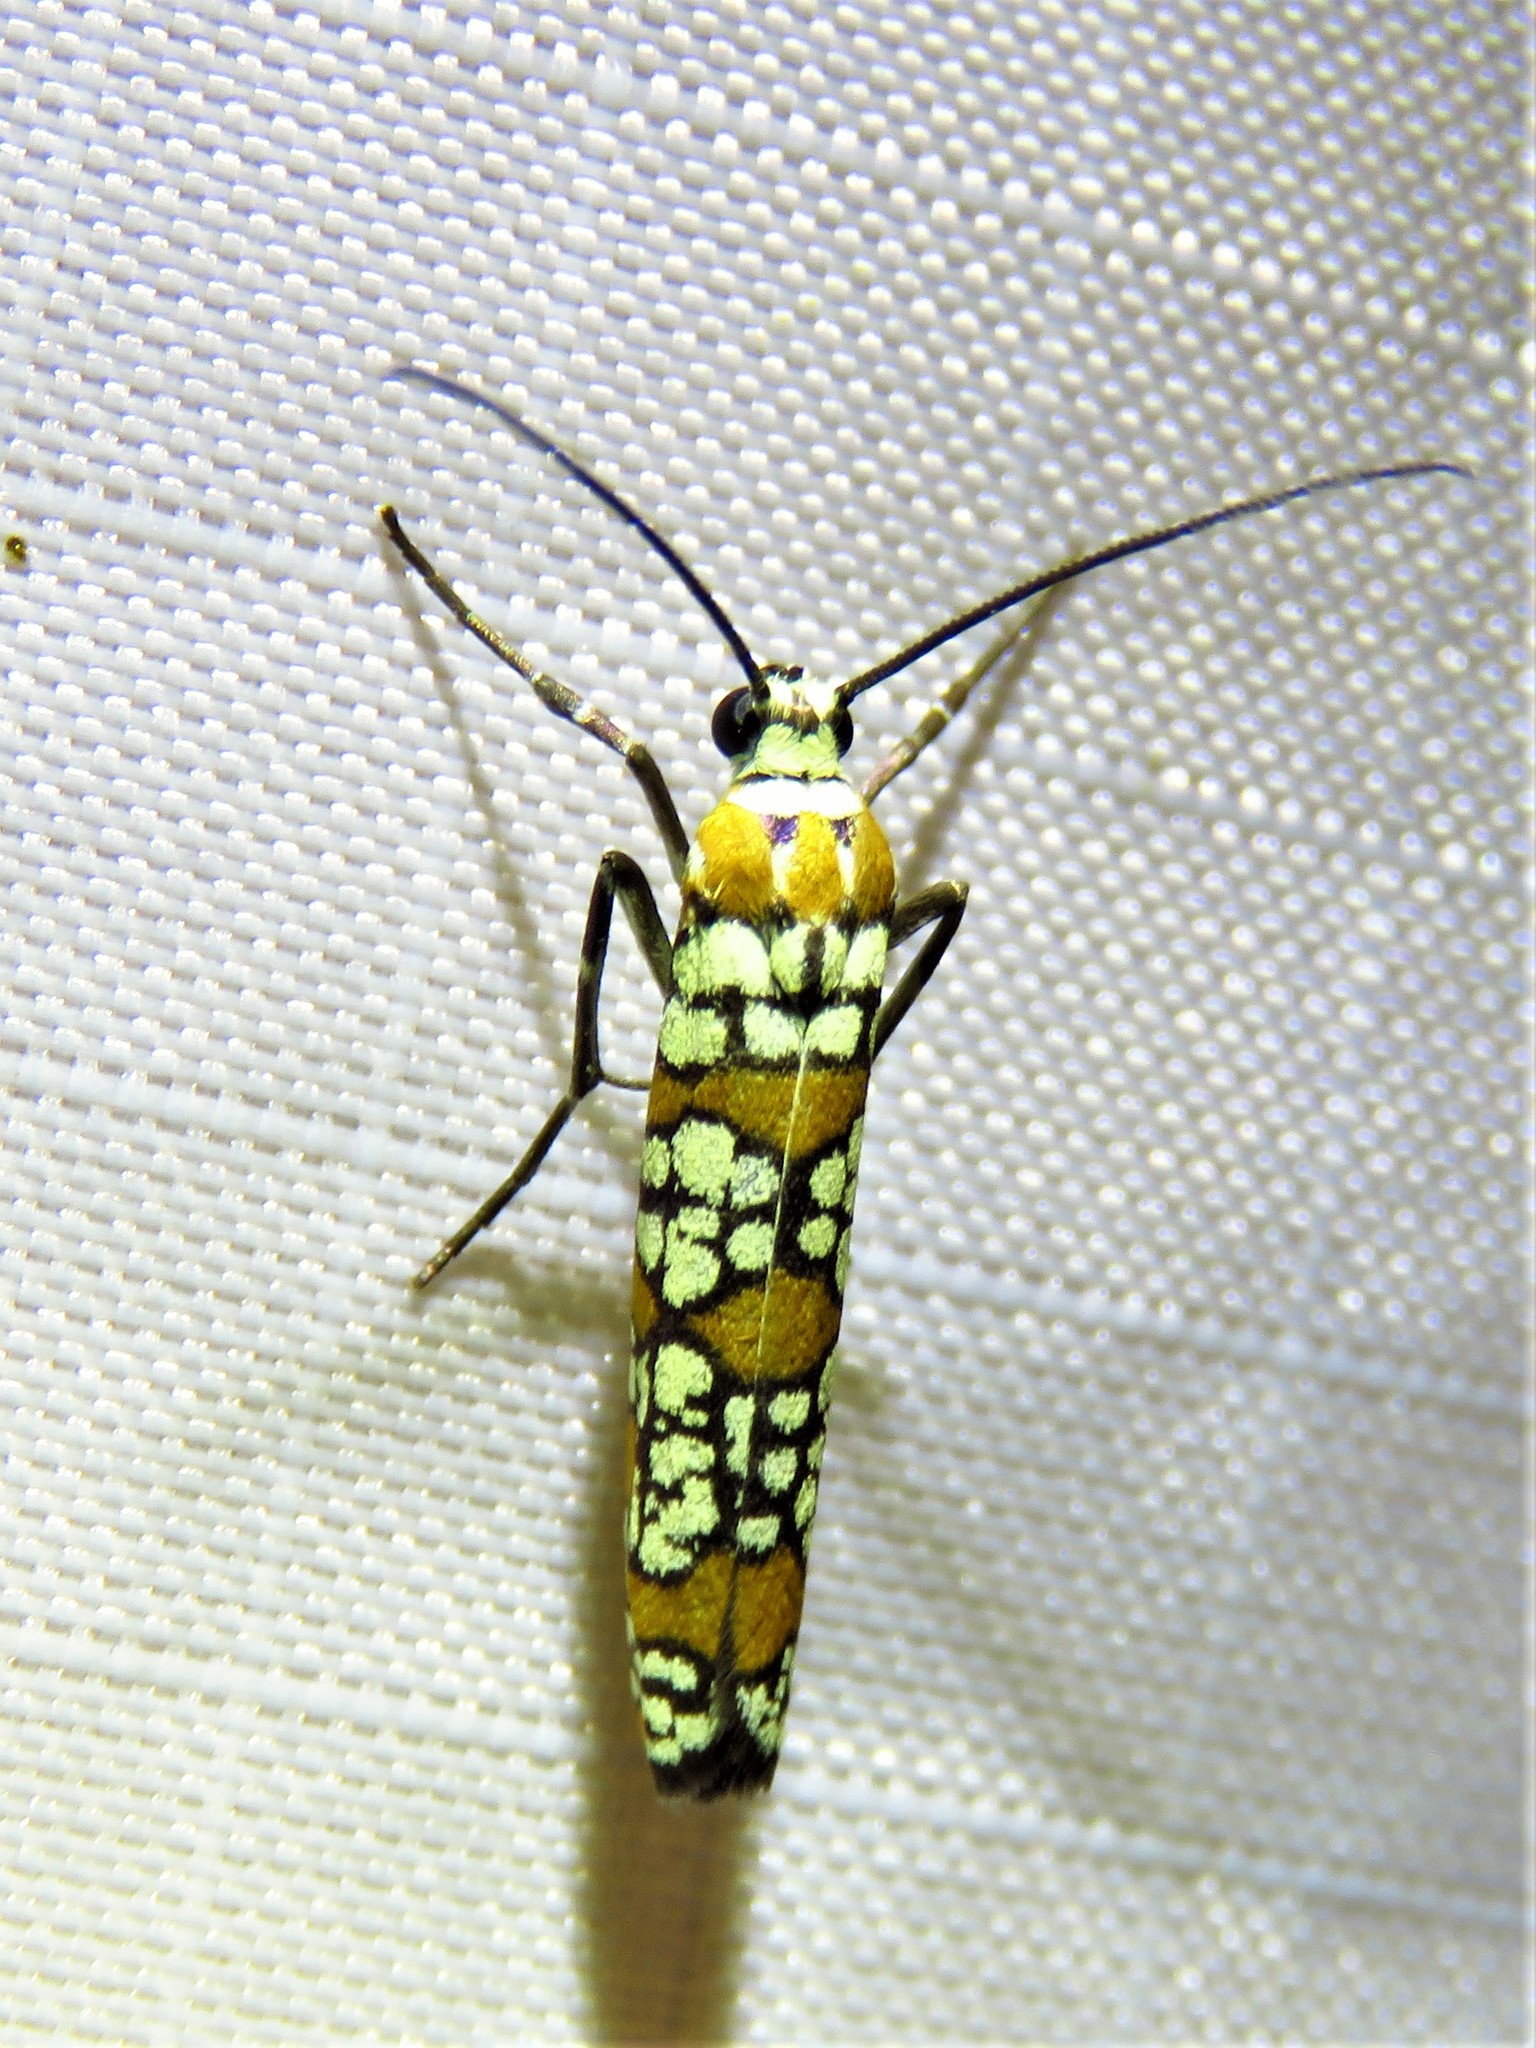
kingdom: Animalia
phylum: Arthropoda
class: Insecta
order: Lepidoptera
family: Attevidae
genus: Atteva
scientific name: Atteva punctella
